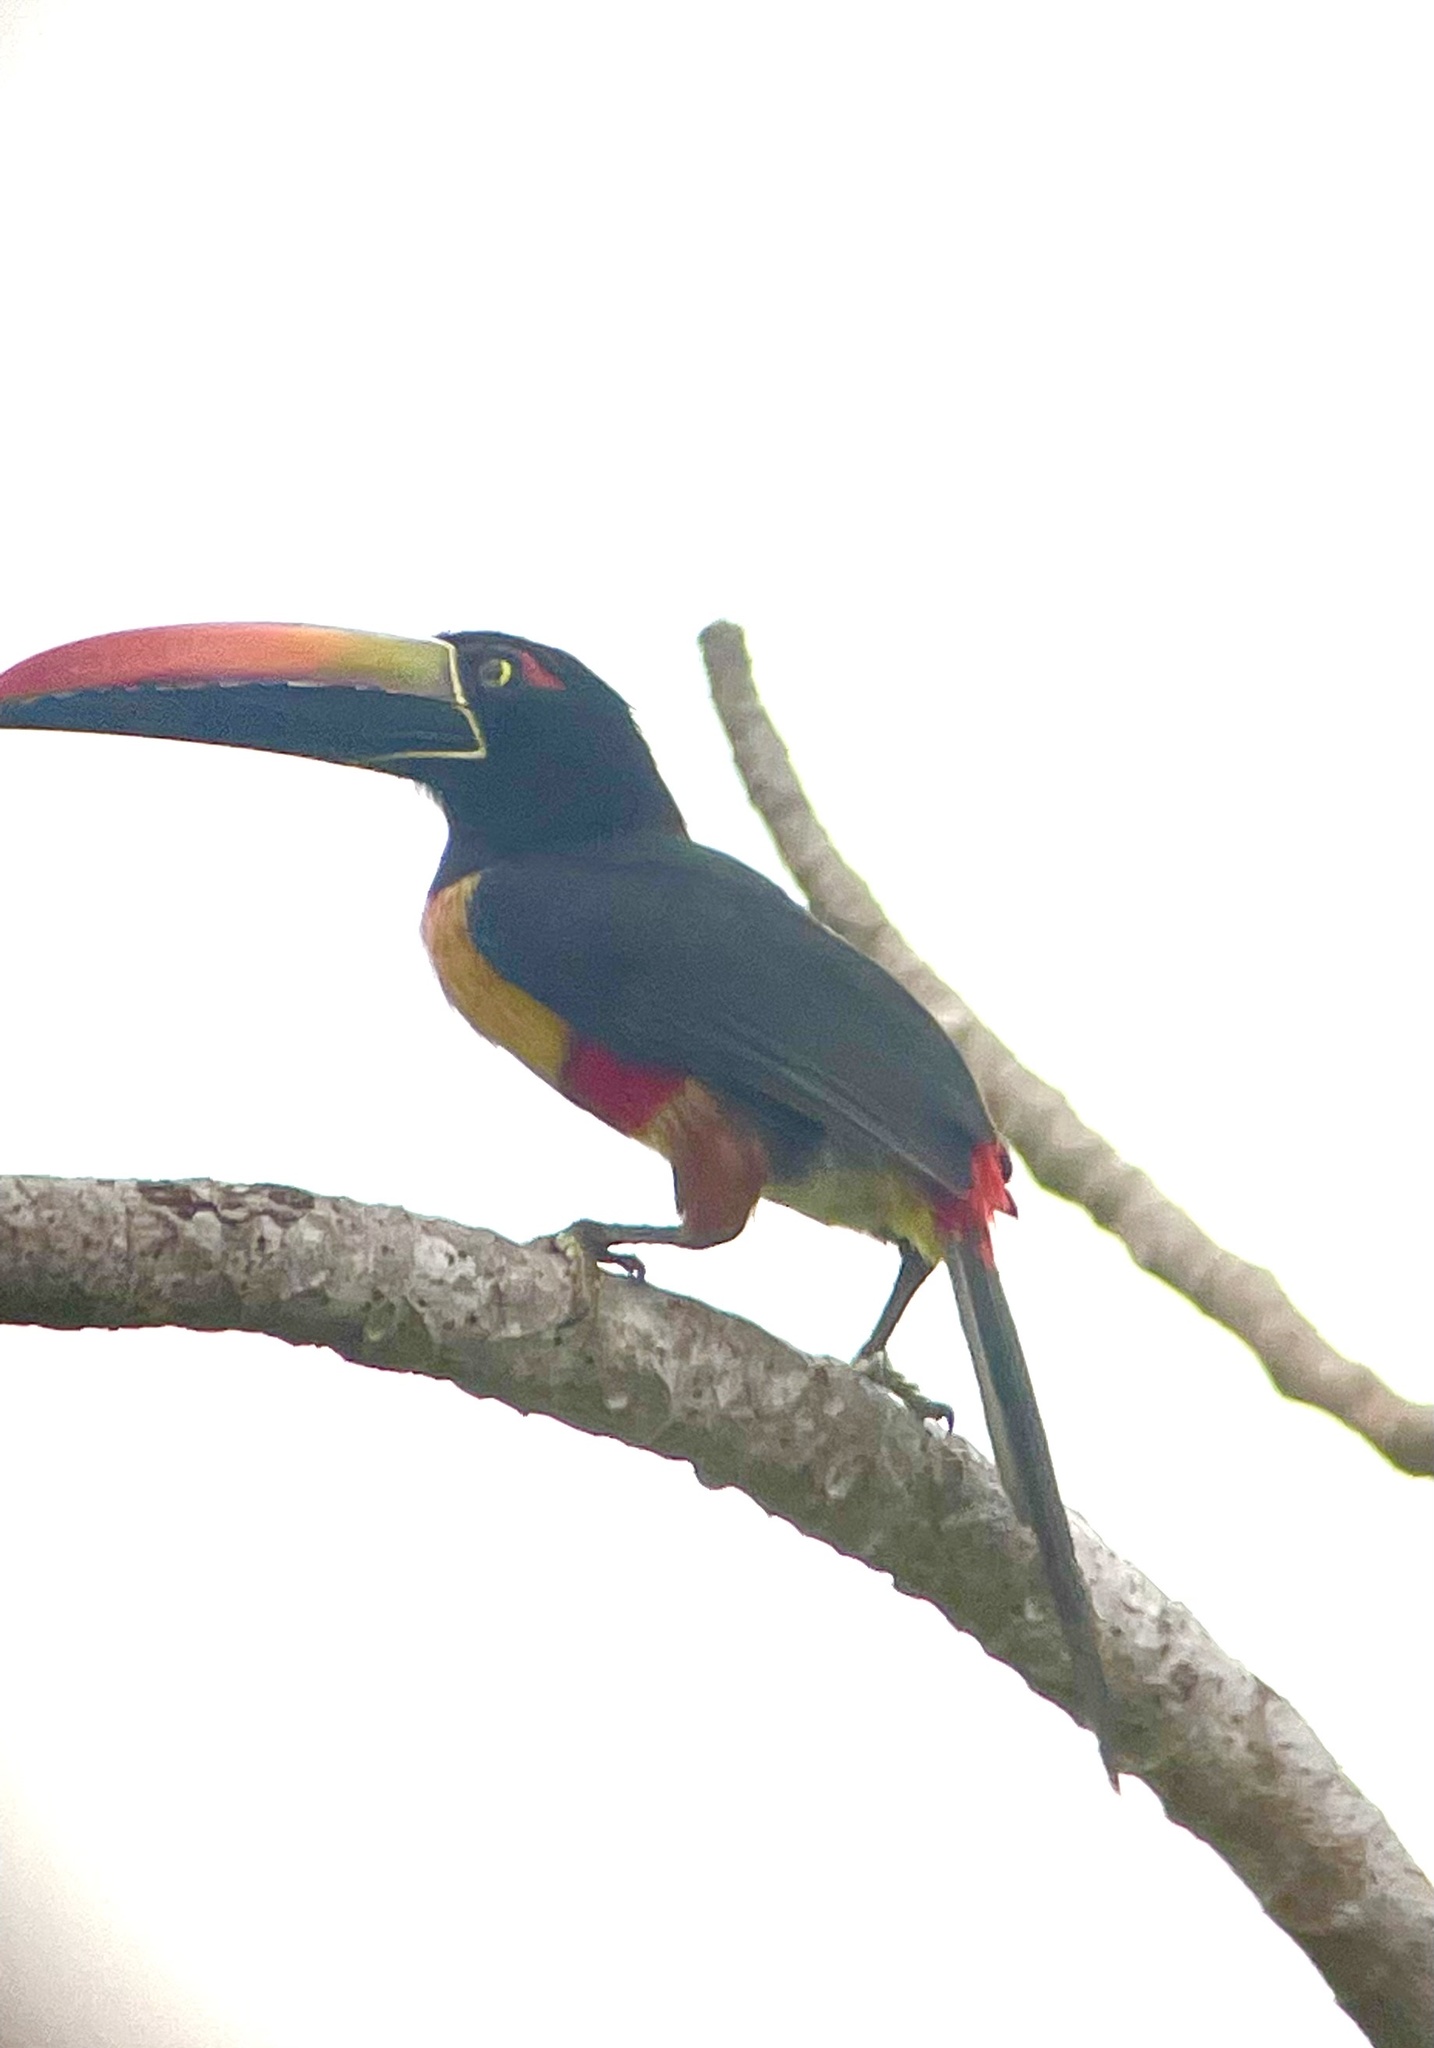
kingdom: Animalia
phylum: Chordata
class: Aves
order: Piciformes
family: Ramphastidae
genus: Pteroglossus
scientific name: Pteroglossus frantzii
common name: Fiery-billed aracari
